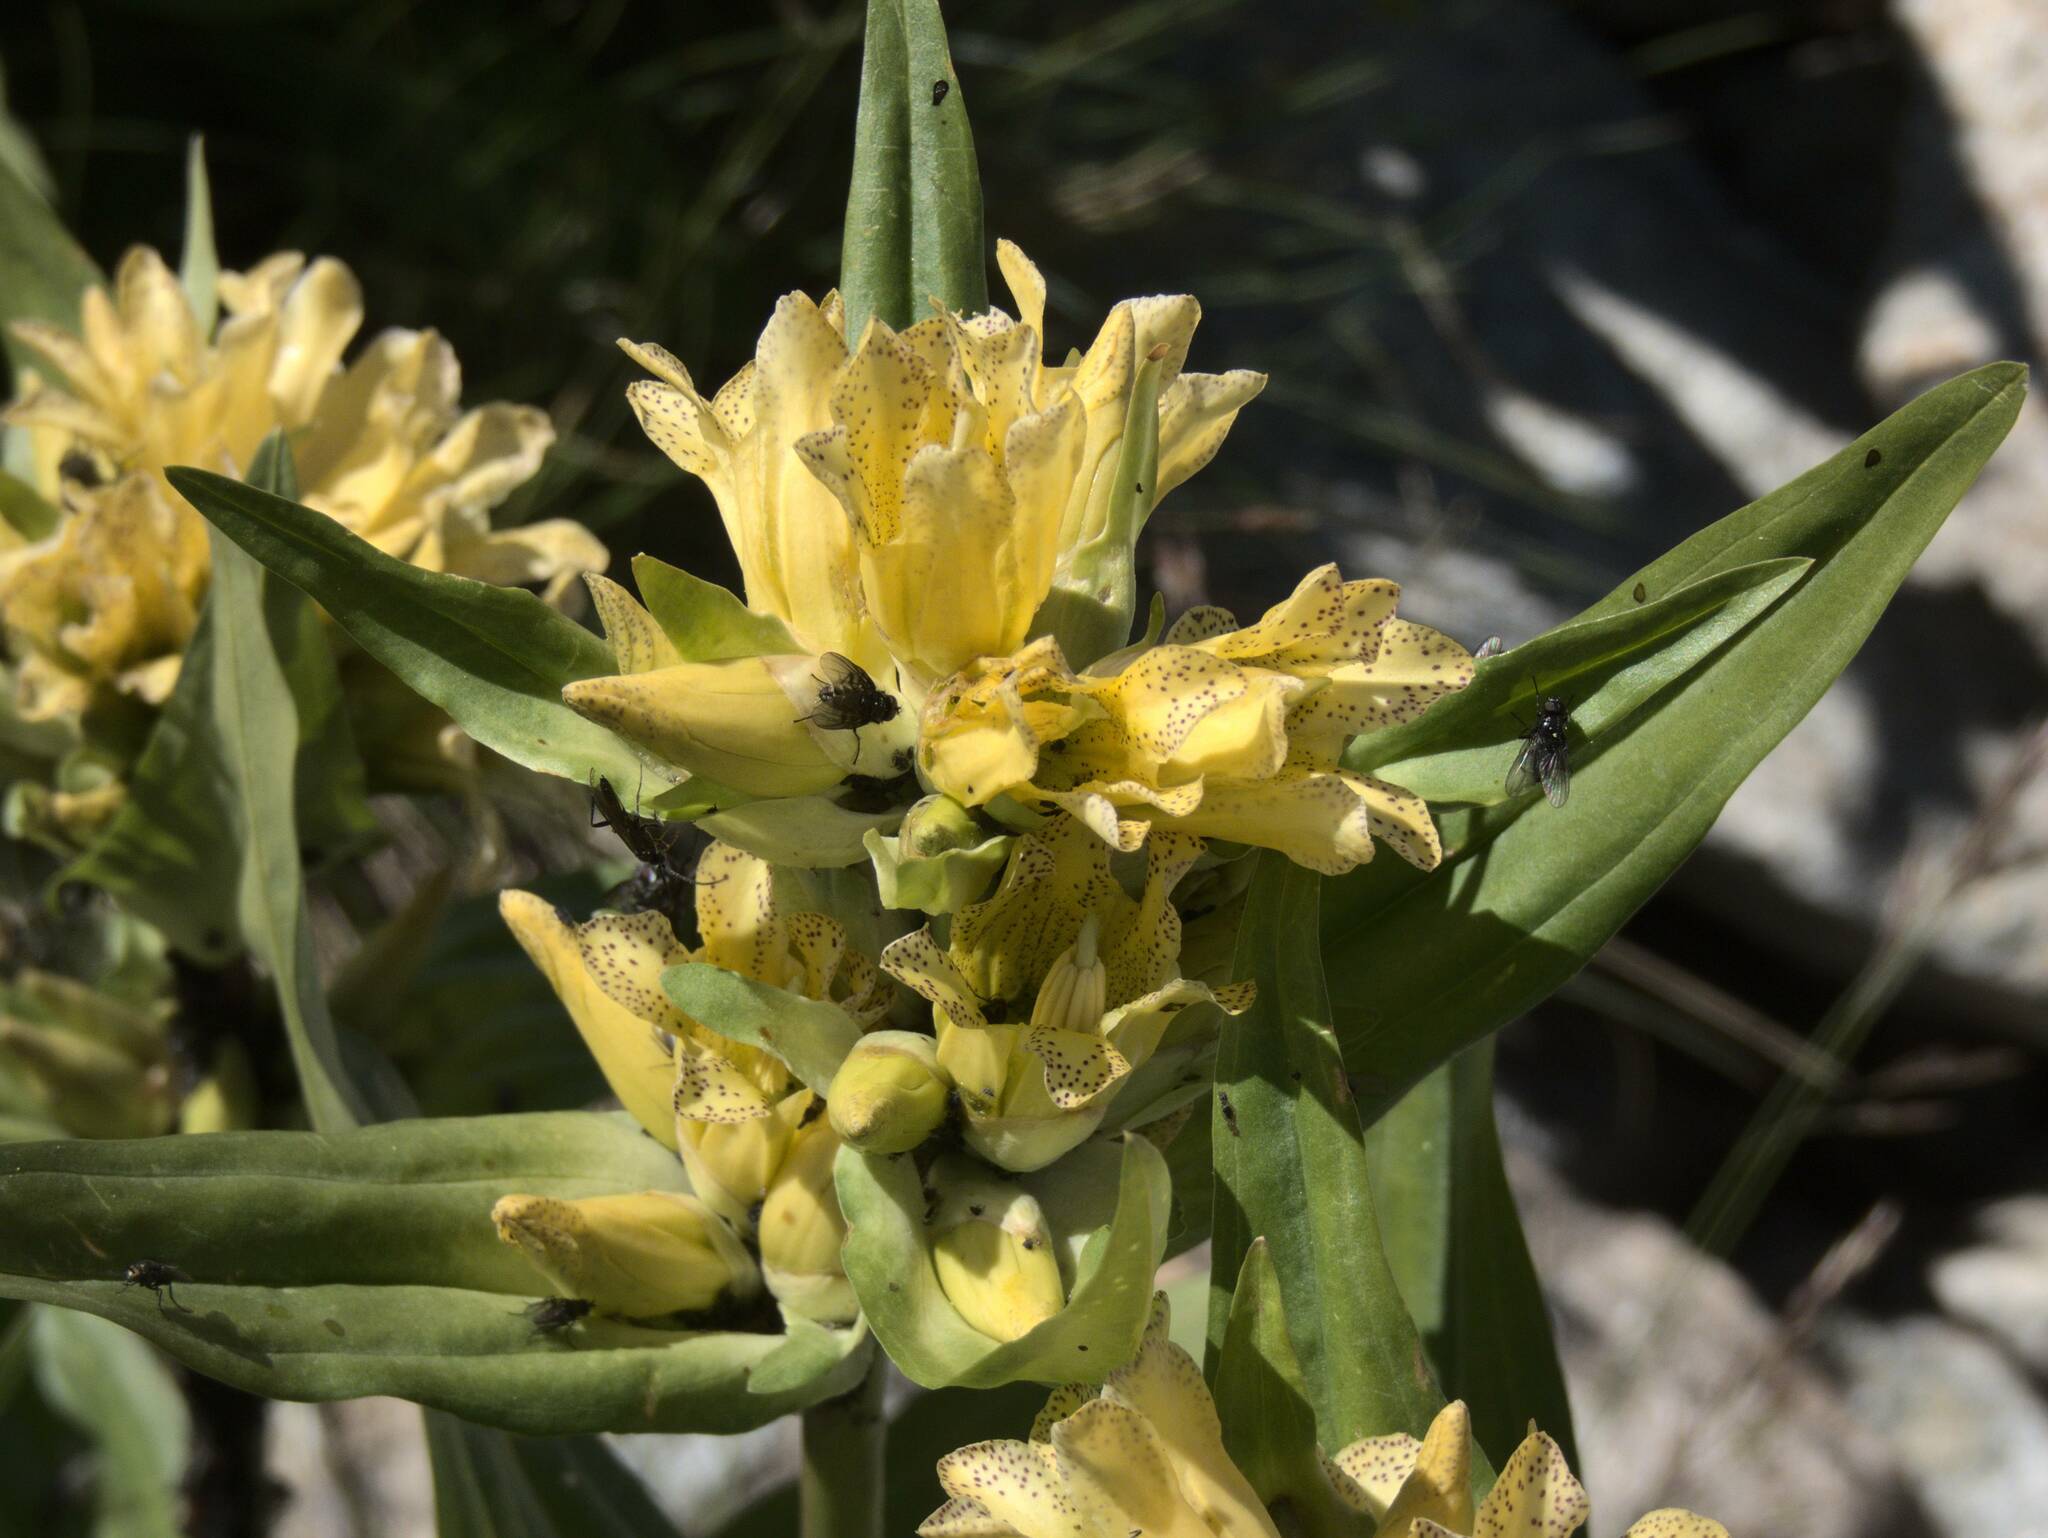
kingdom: Plantae
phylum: Tracheophyta
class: Magnoliopsida
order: Gentianales
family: Gentianaceae
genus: Gentiana
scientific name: Gentiana burseri
